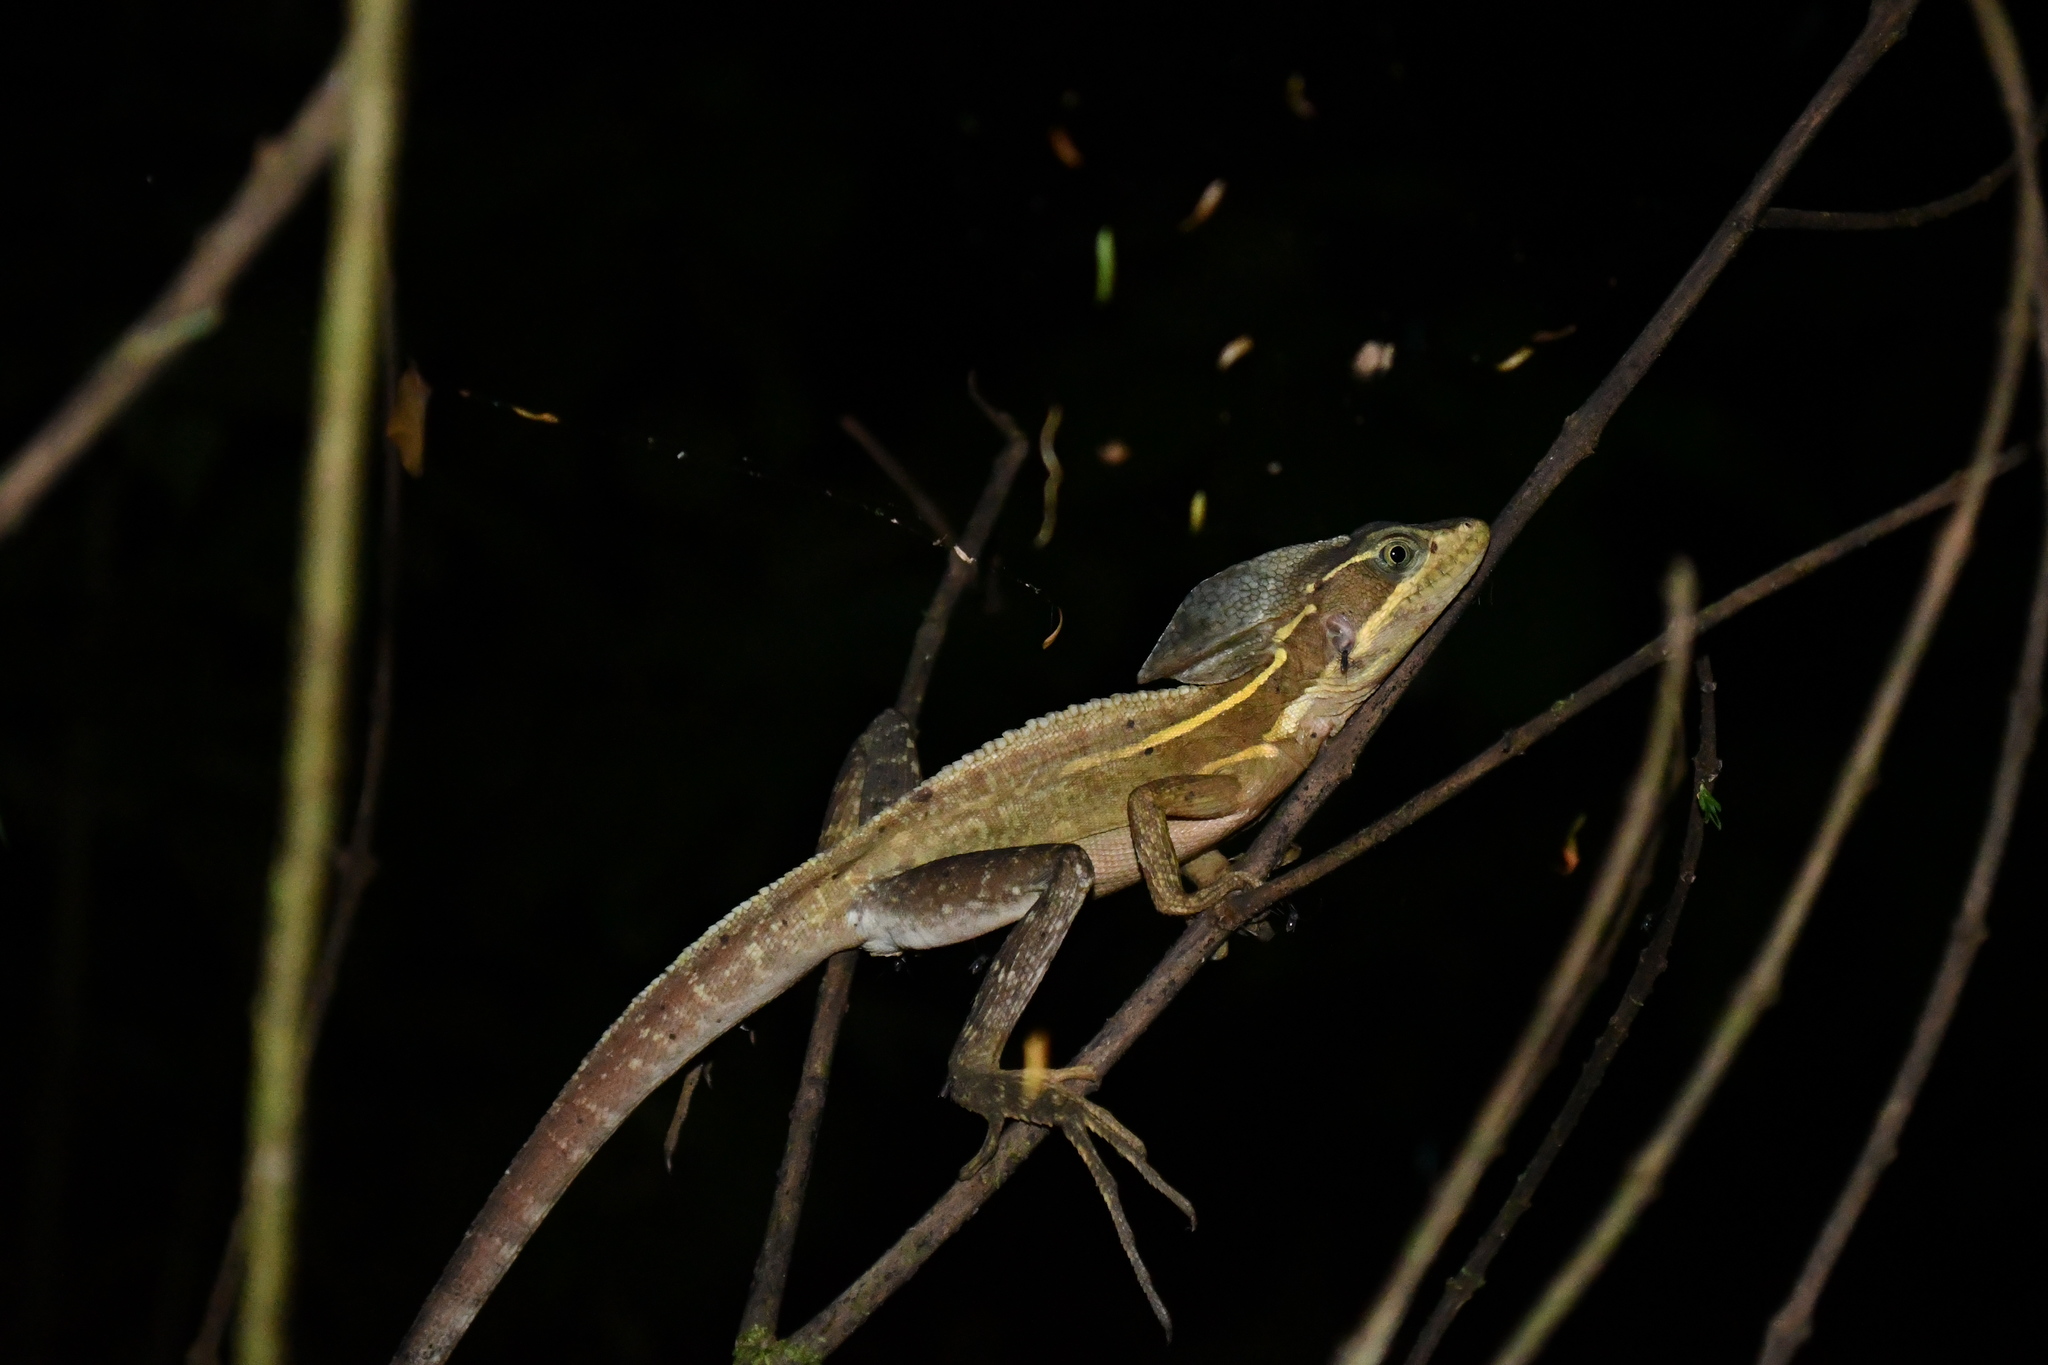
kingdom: Animalia
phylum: Chordata
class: Squamata
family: Corytophanidae
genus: Basiliscus
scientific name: Basiliscus vittatus
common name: Brown basilisk
